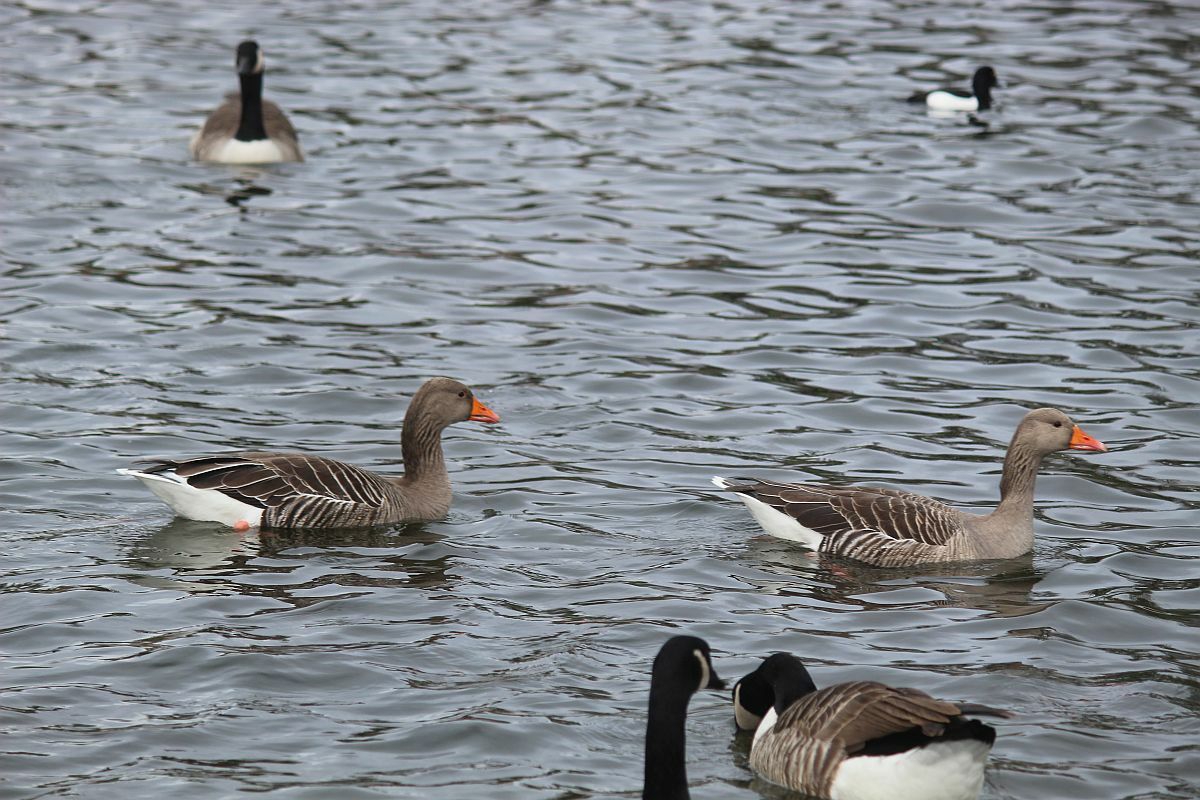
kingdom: Animalia
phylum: Chordata
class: Aves
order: Anseriformes
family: Anatidae
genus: Anser
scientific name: Anser anser
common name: Greylag goose
